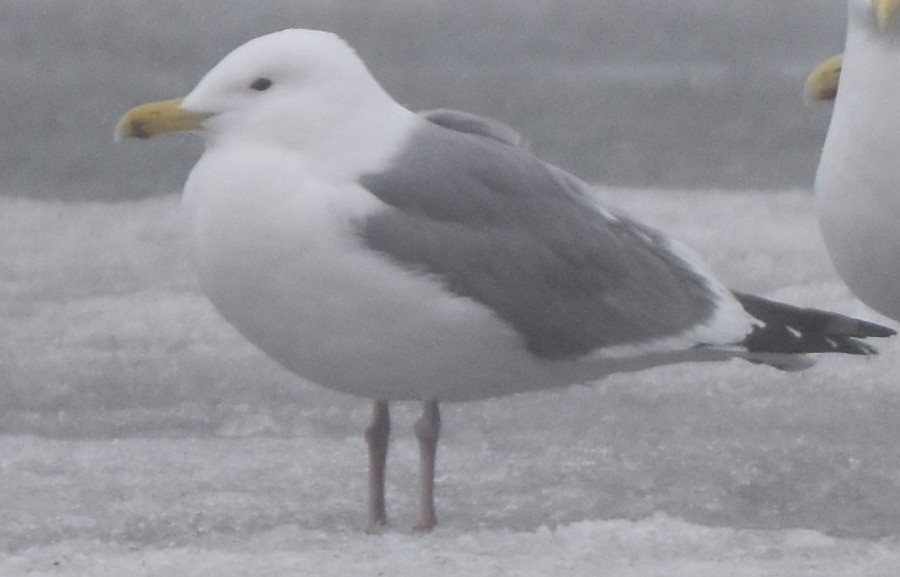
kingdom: Animalia
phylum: Chordata
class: Aves
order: Charadriiformes
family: Laridae
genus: Larus
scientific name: Larus vegae
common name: Vega gull
